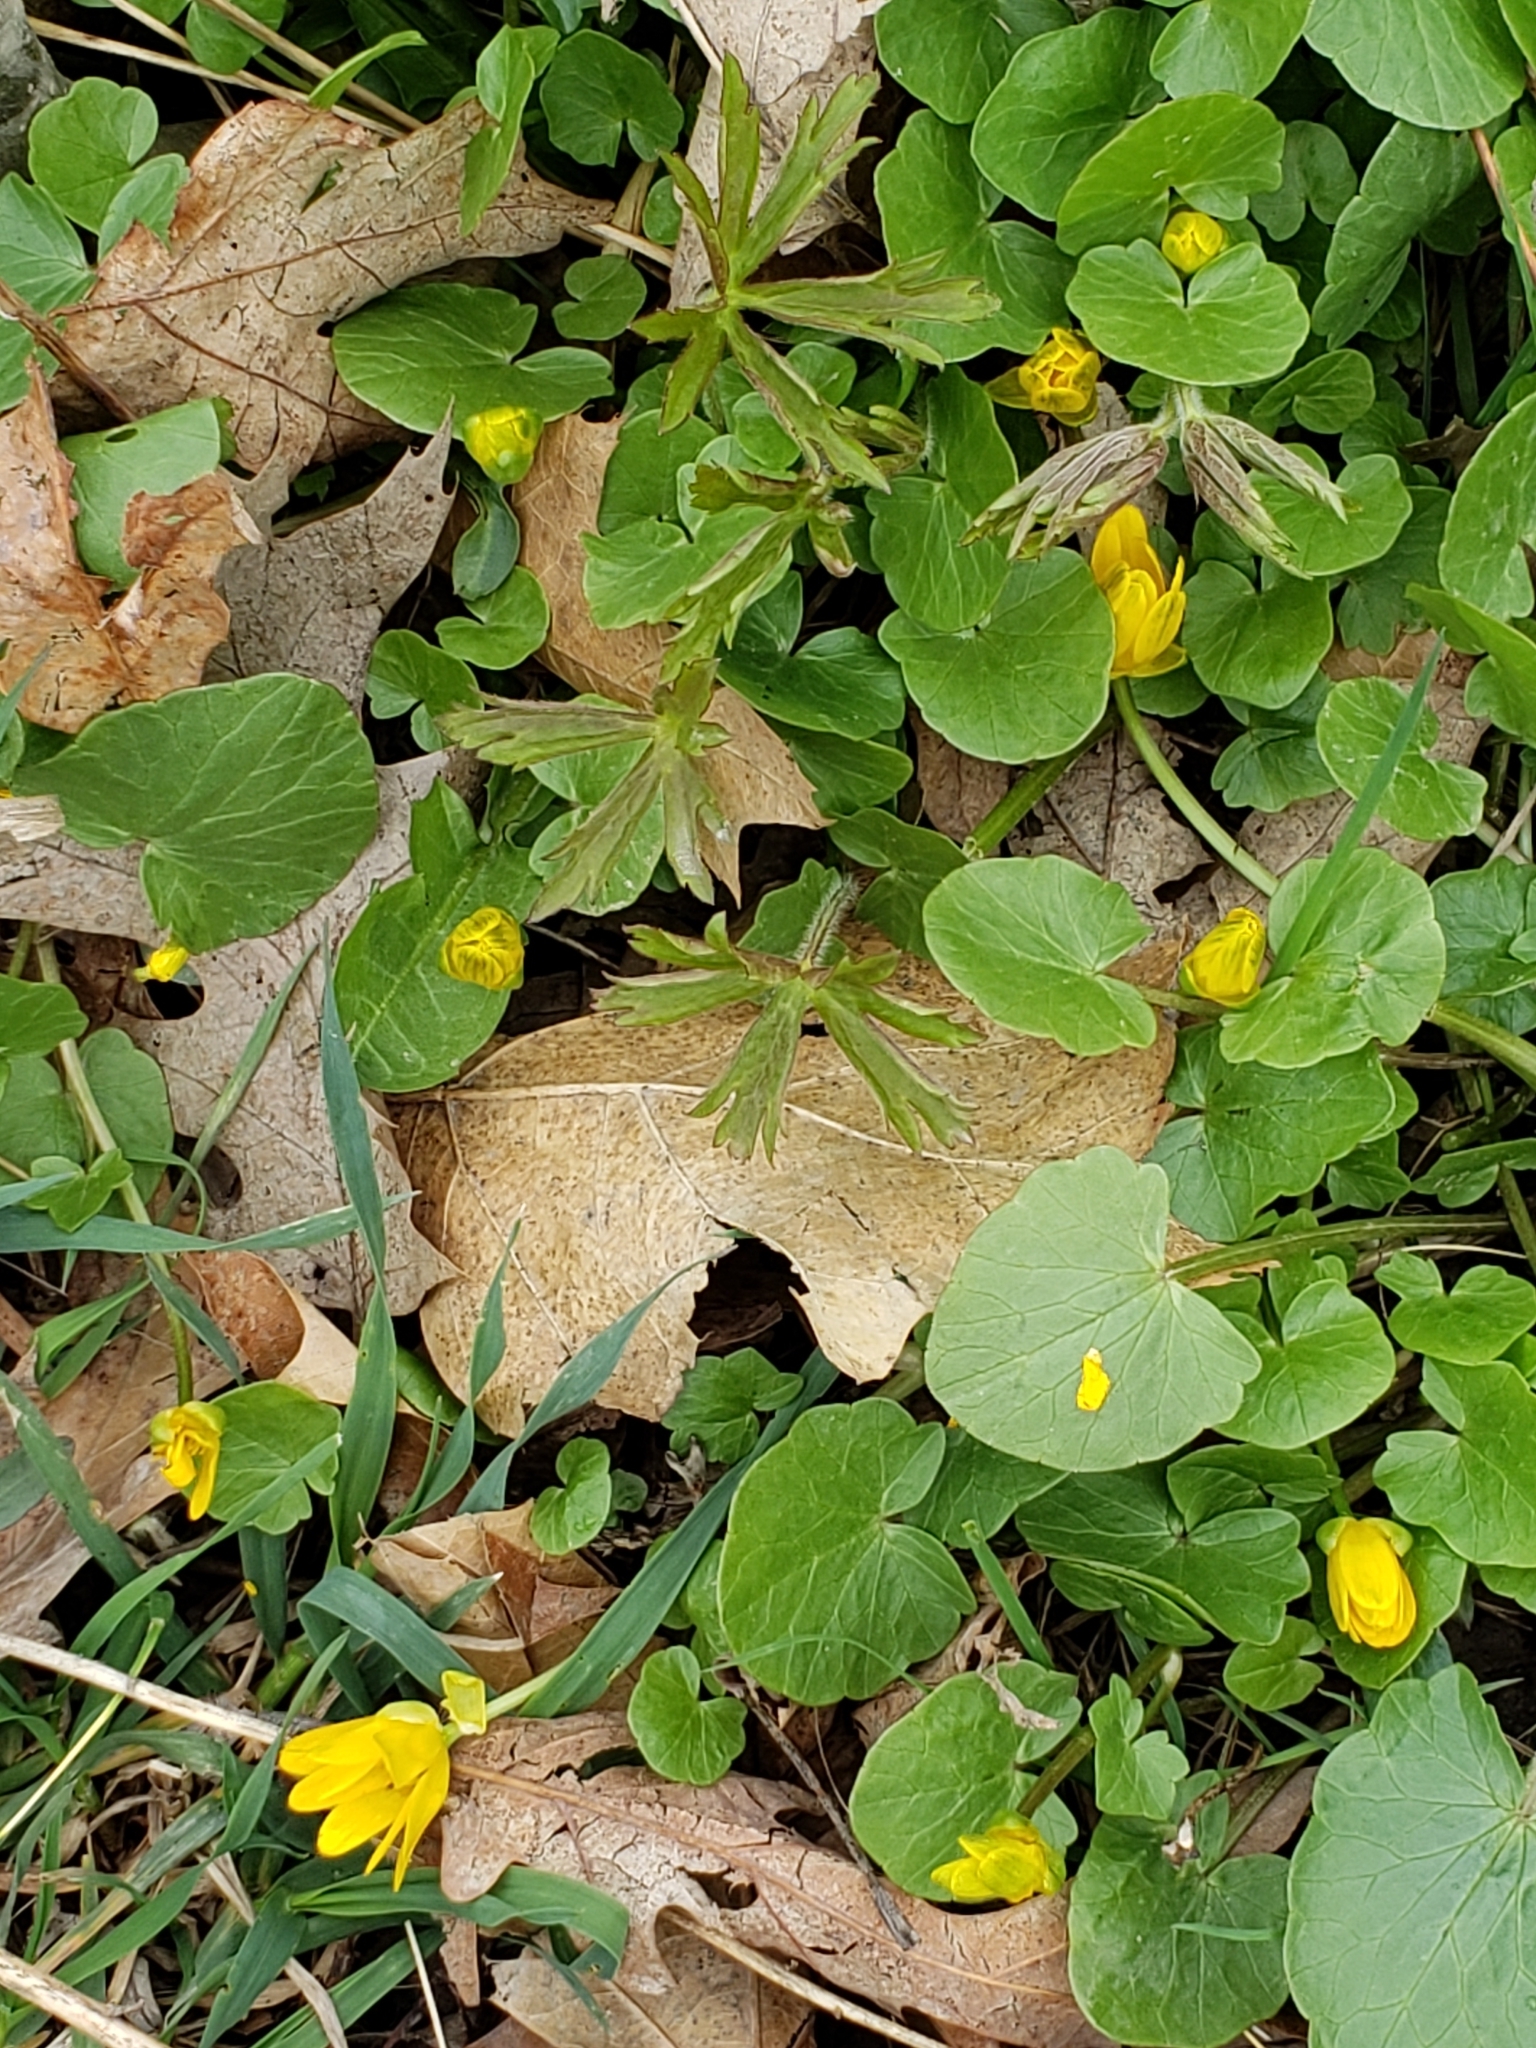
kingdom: Plantae
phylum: Tracheophyta
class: Magnoliopsida
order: Ranunculales
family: Ranunculaceae
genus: Ficaria
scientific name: Ficaria verna
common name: Lesser celandine
